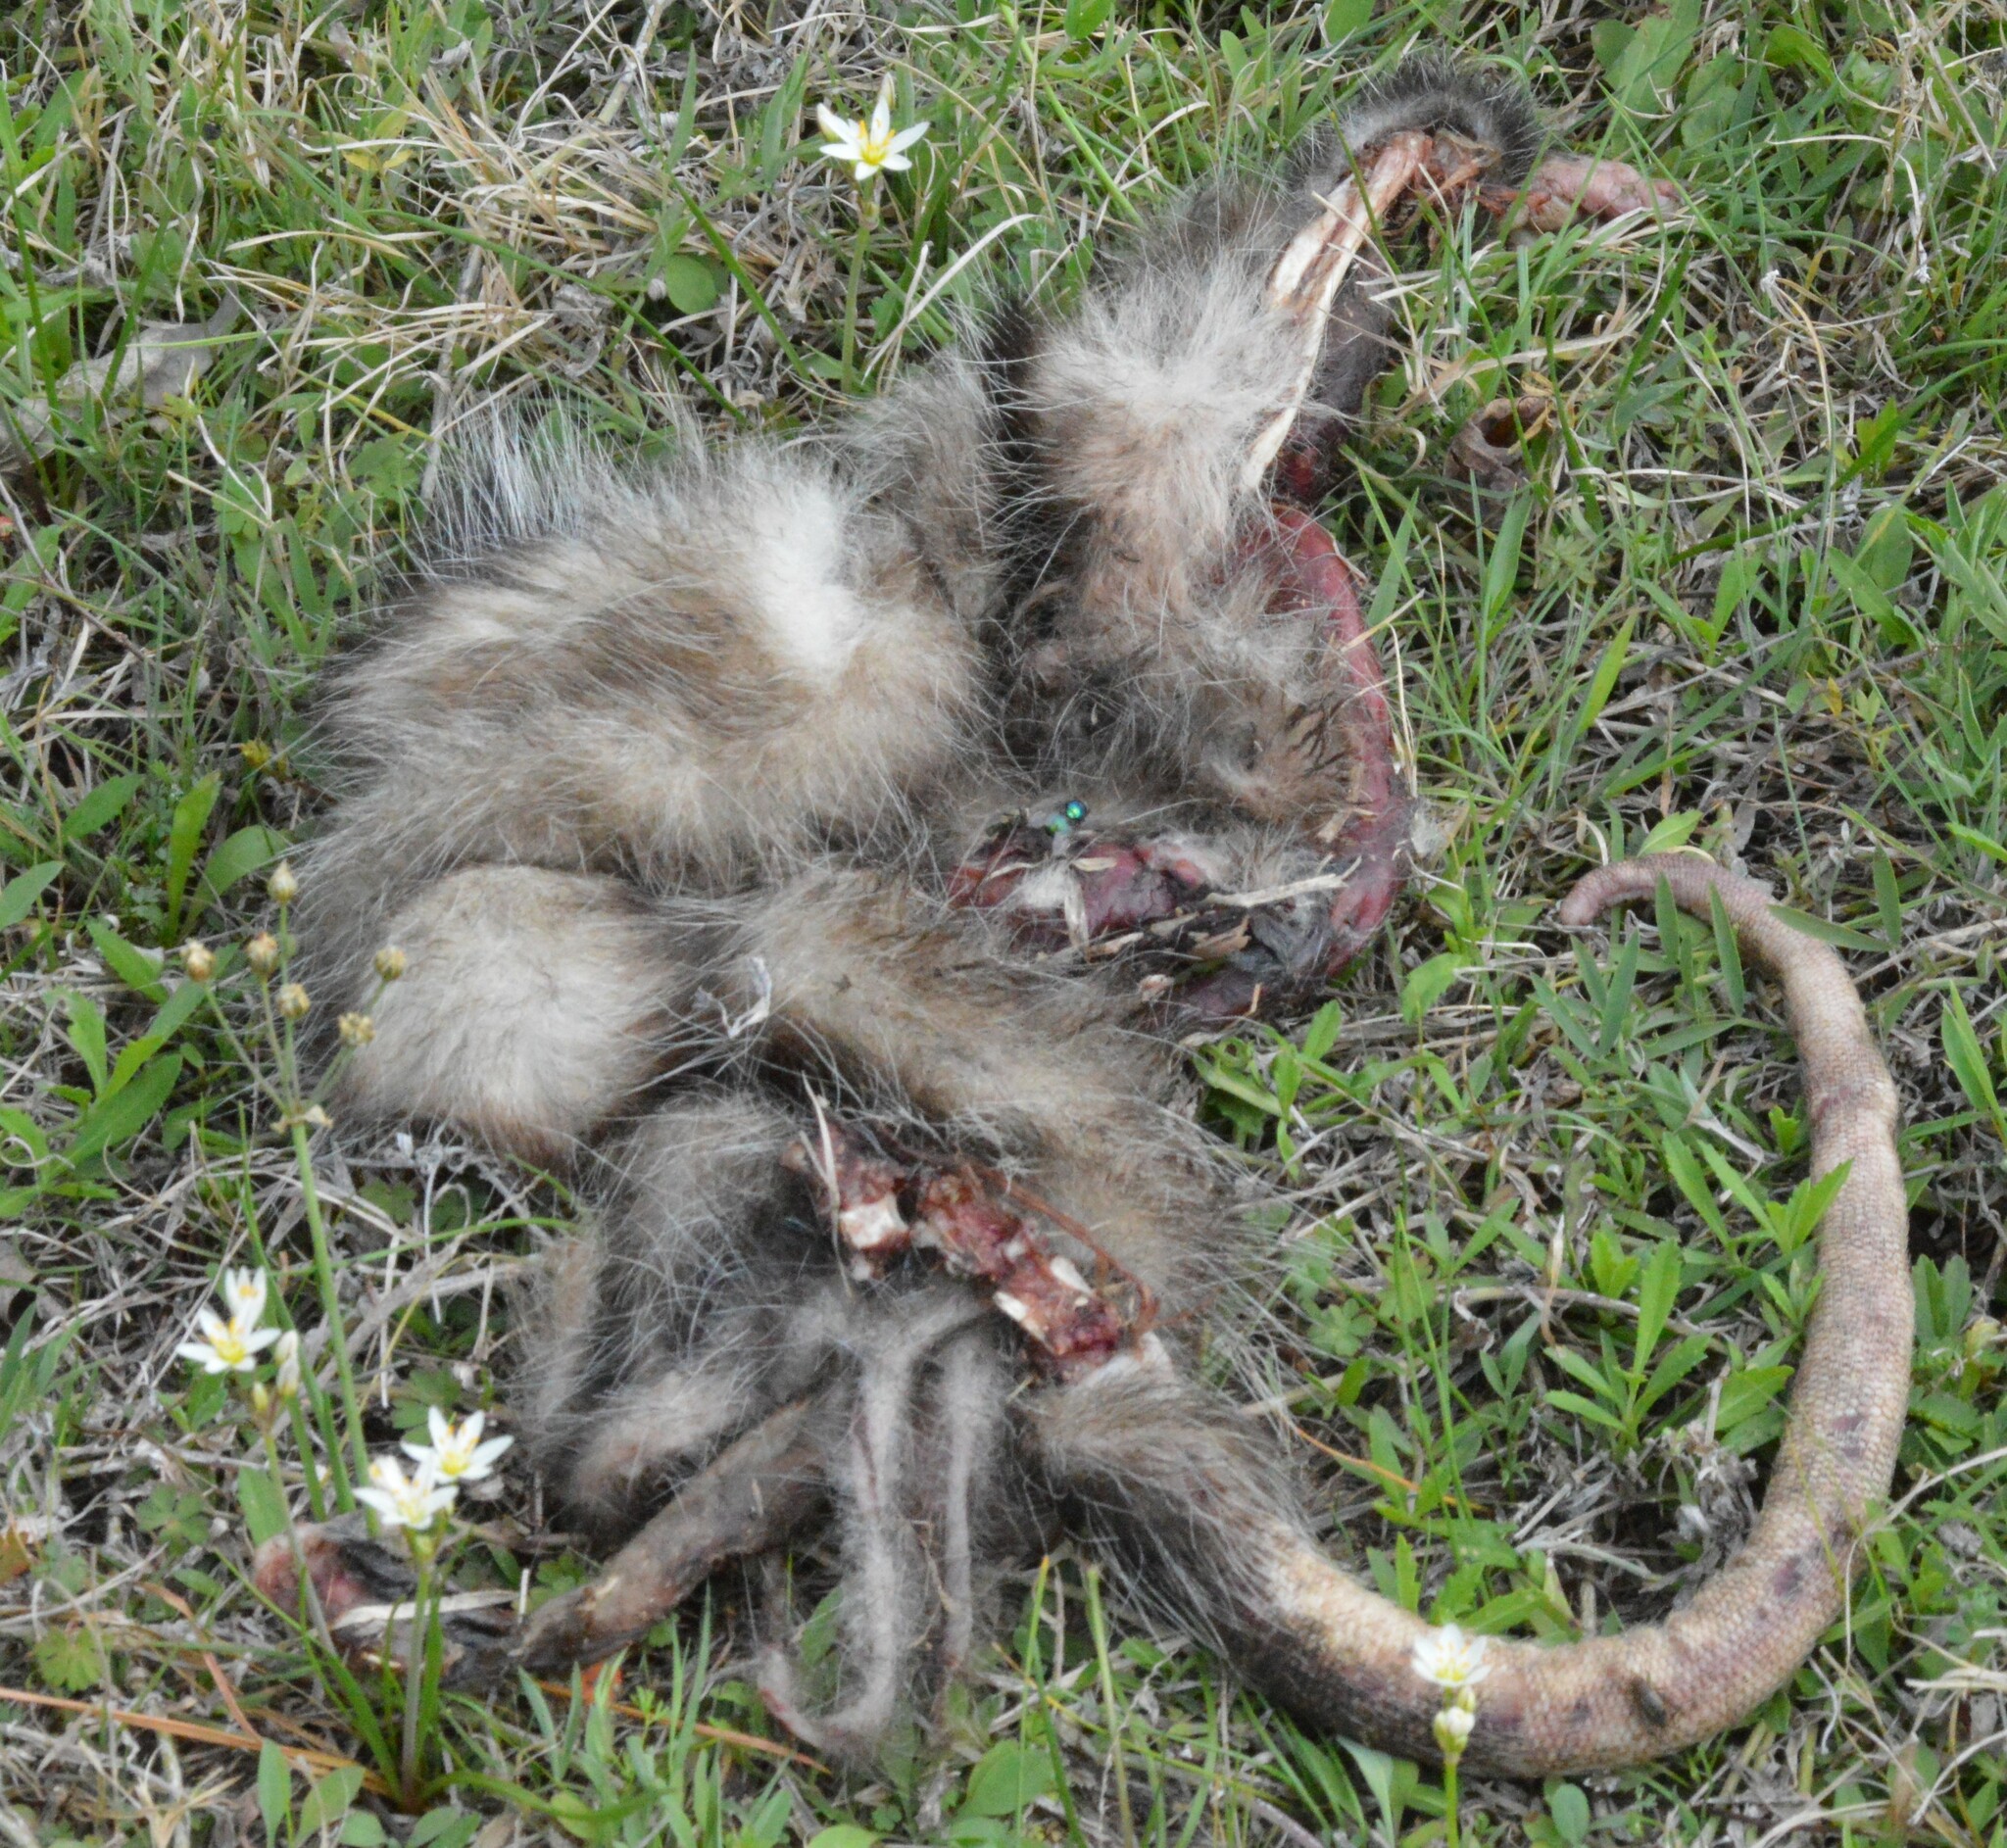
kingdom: Animalia
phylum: Chordata
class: Mammalia
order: Didelphimorphia
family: Didelphidae
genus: Didelphis
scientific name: Didelphis virginiana
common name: Virginia opossum
